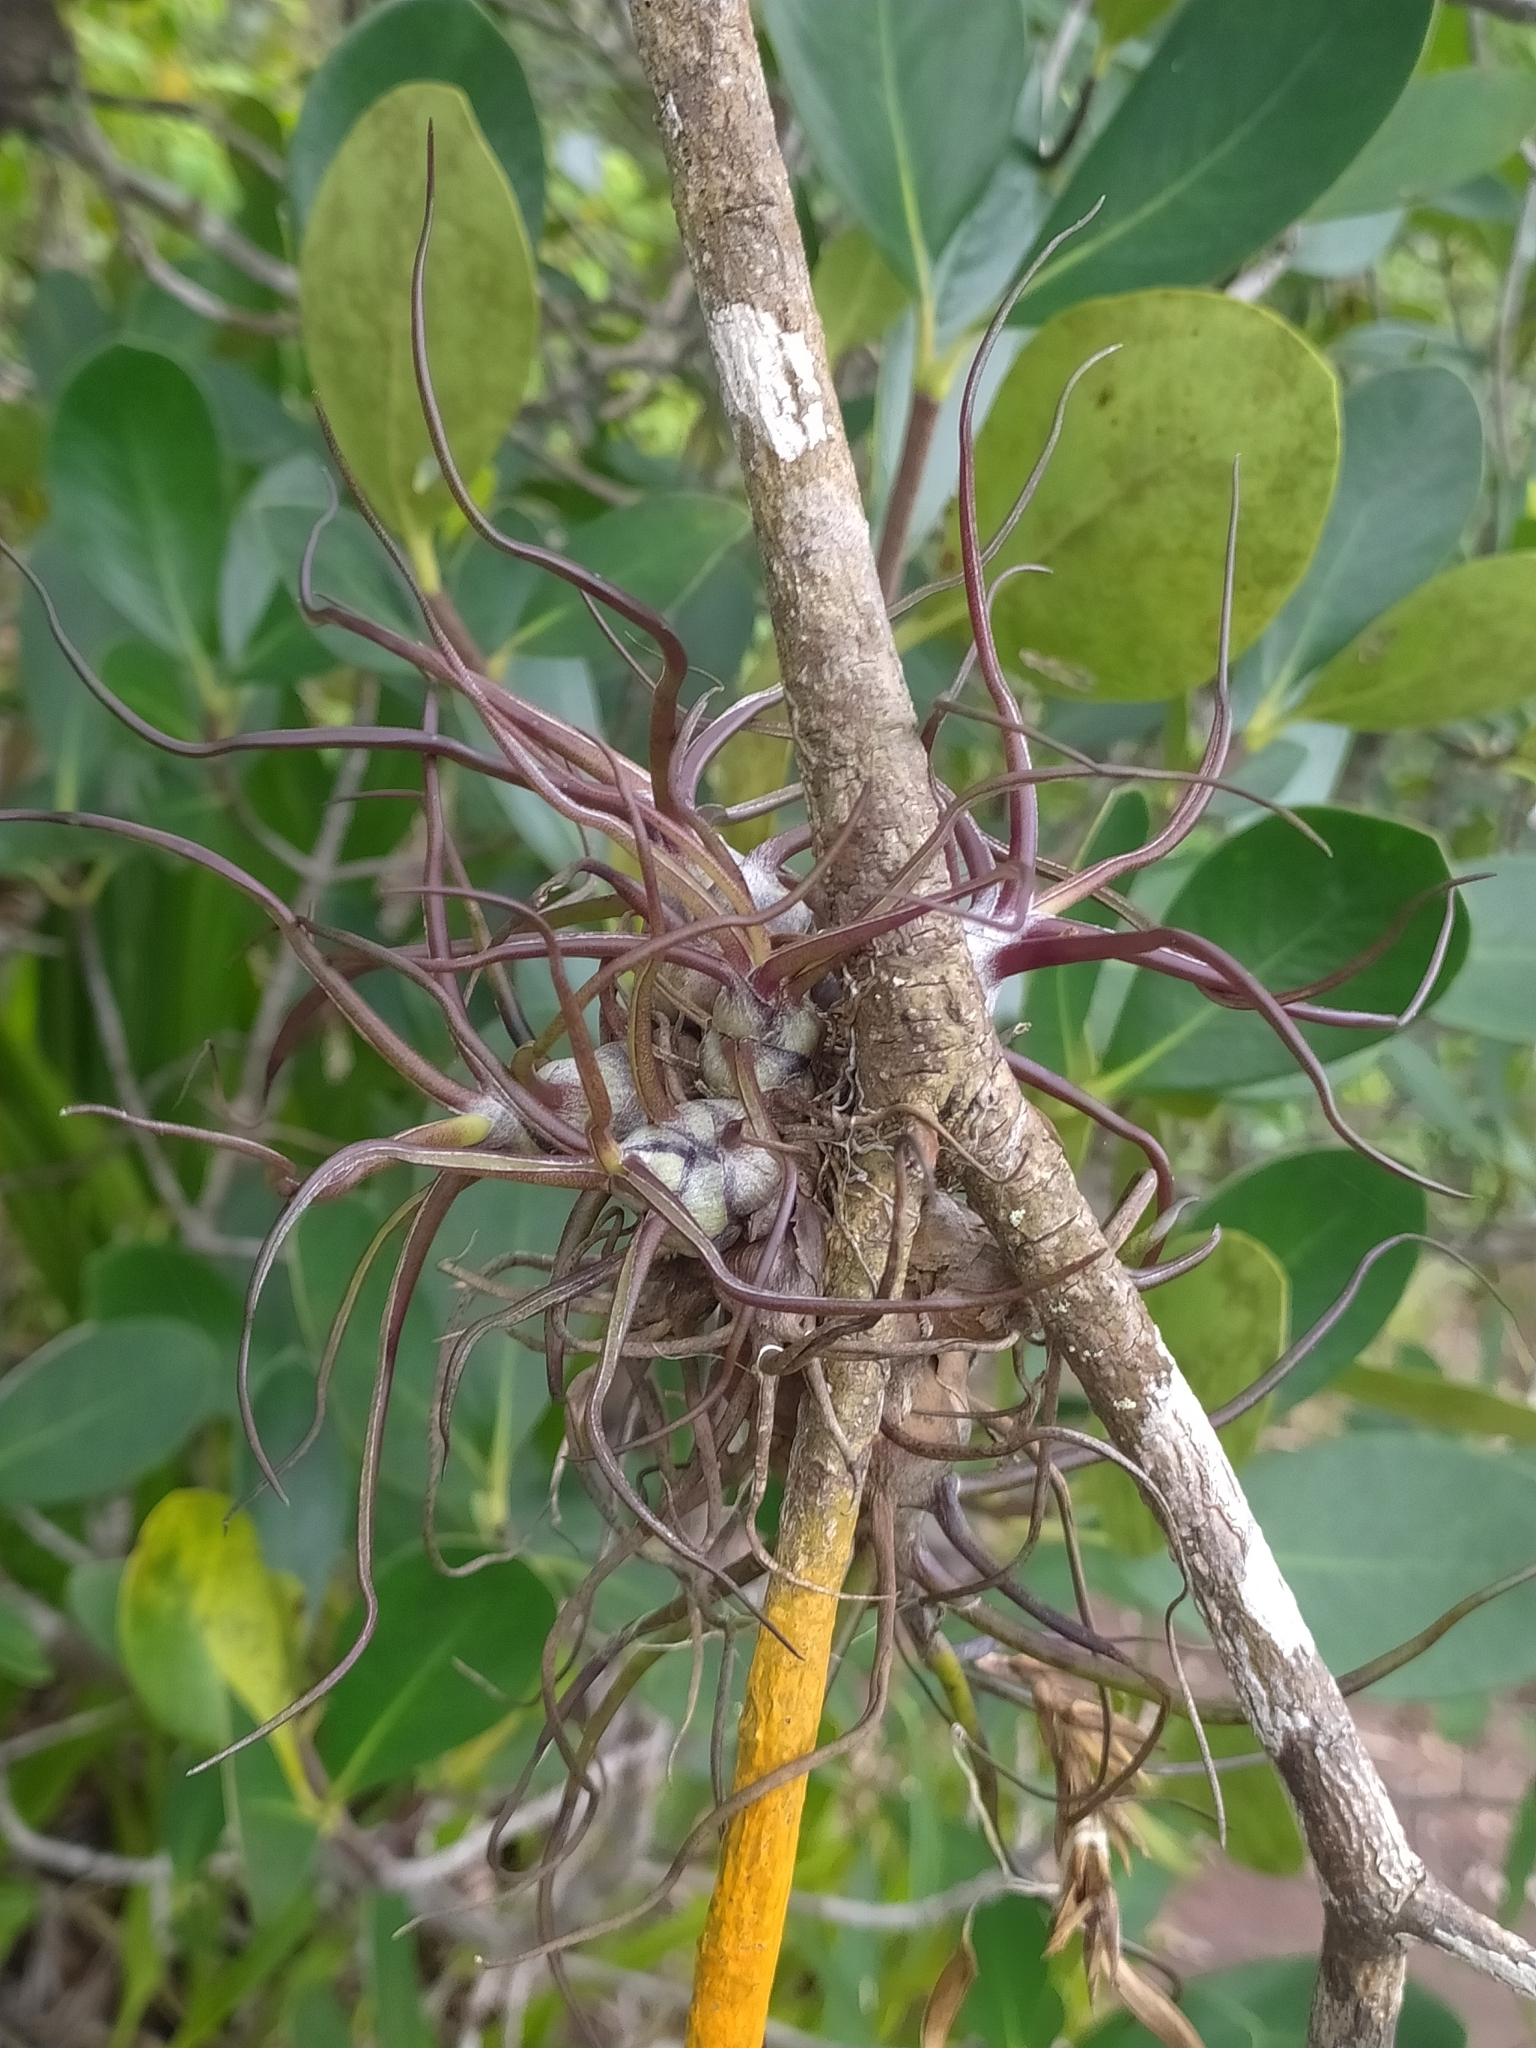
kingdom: Plantae
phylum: Tracheophyta
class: Liliopsida
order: Poales
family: Bromeliaceae
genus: Tillandsia
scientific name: Tillandsia bulbosa
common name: Bulbous airplant
